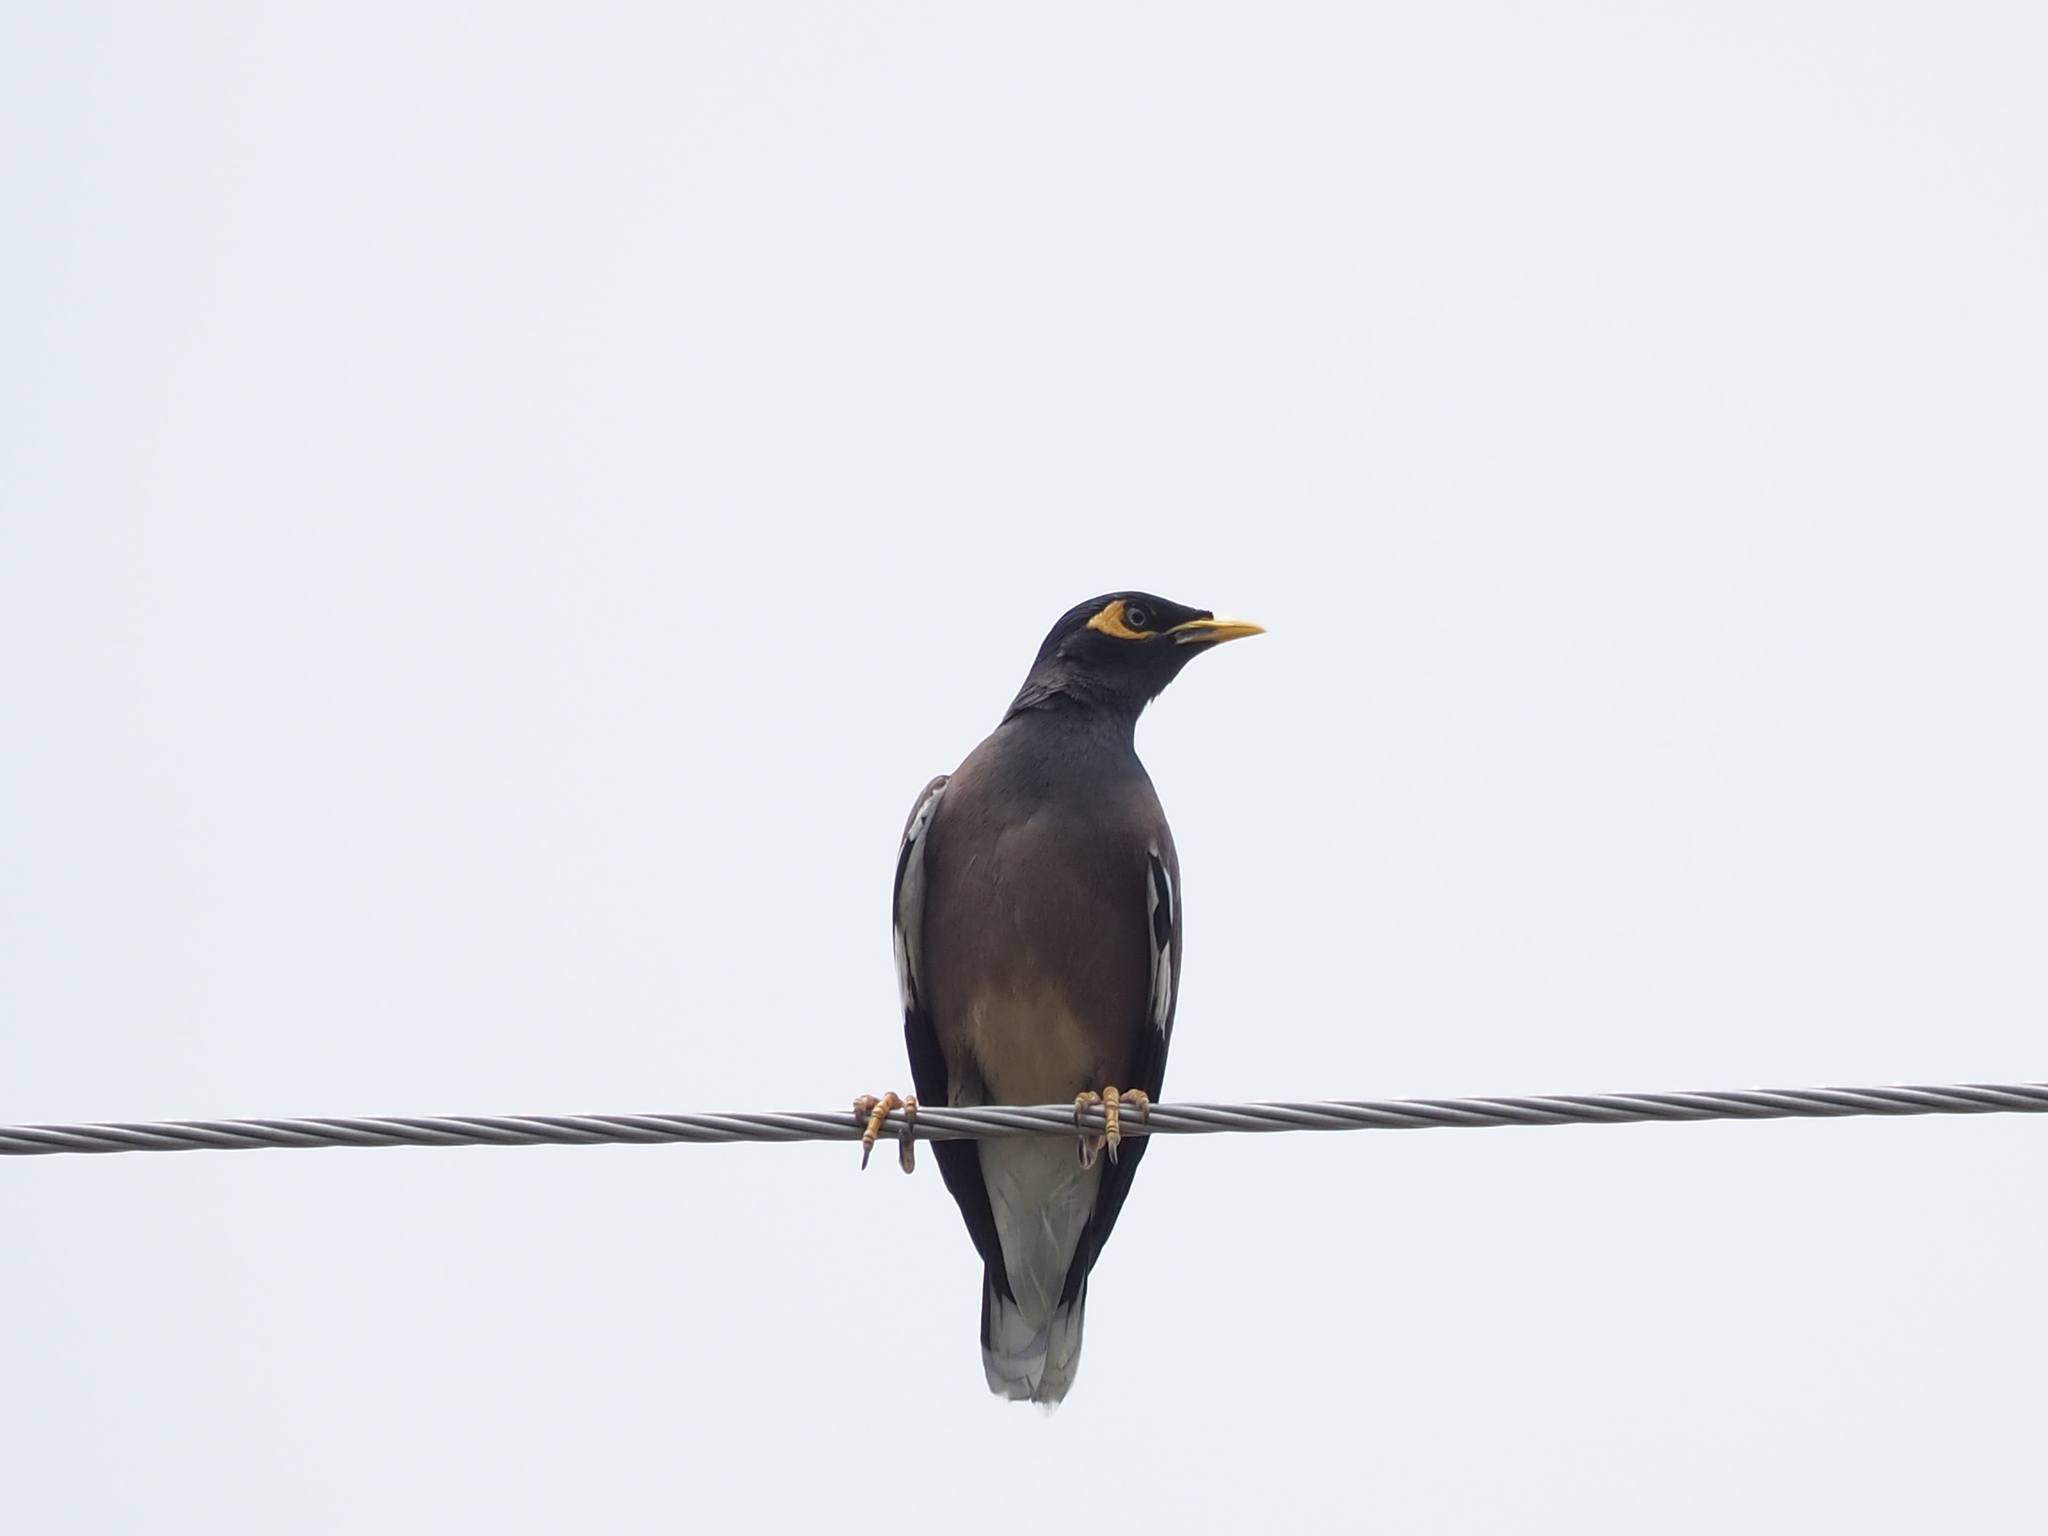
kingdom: Animalia
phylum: Chordata
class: Aves
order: Passeriformes
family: Sturnidae
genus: Acridotheres
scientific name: Acridotheres tristis
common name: Common myna
